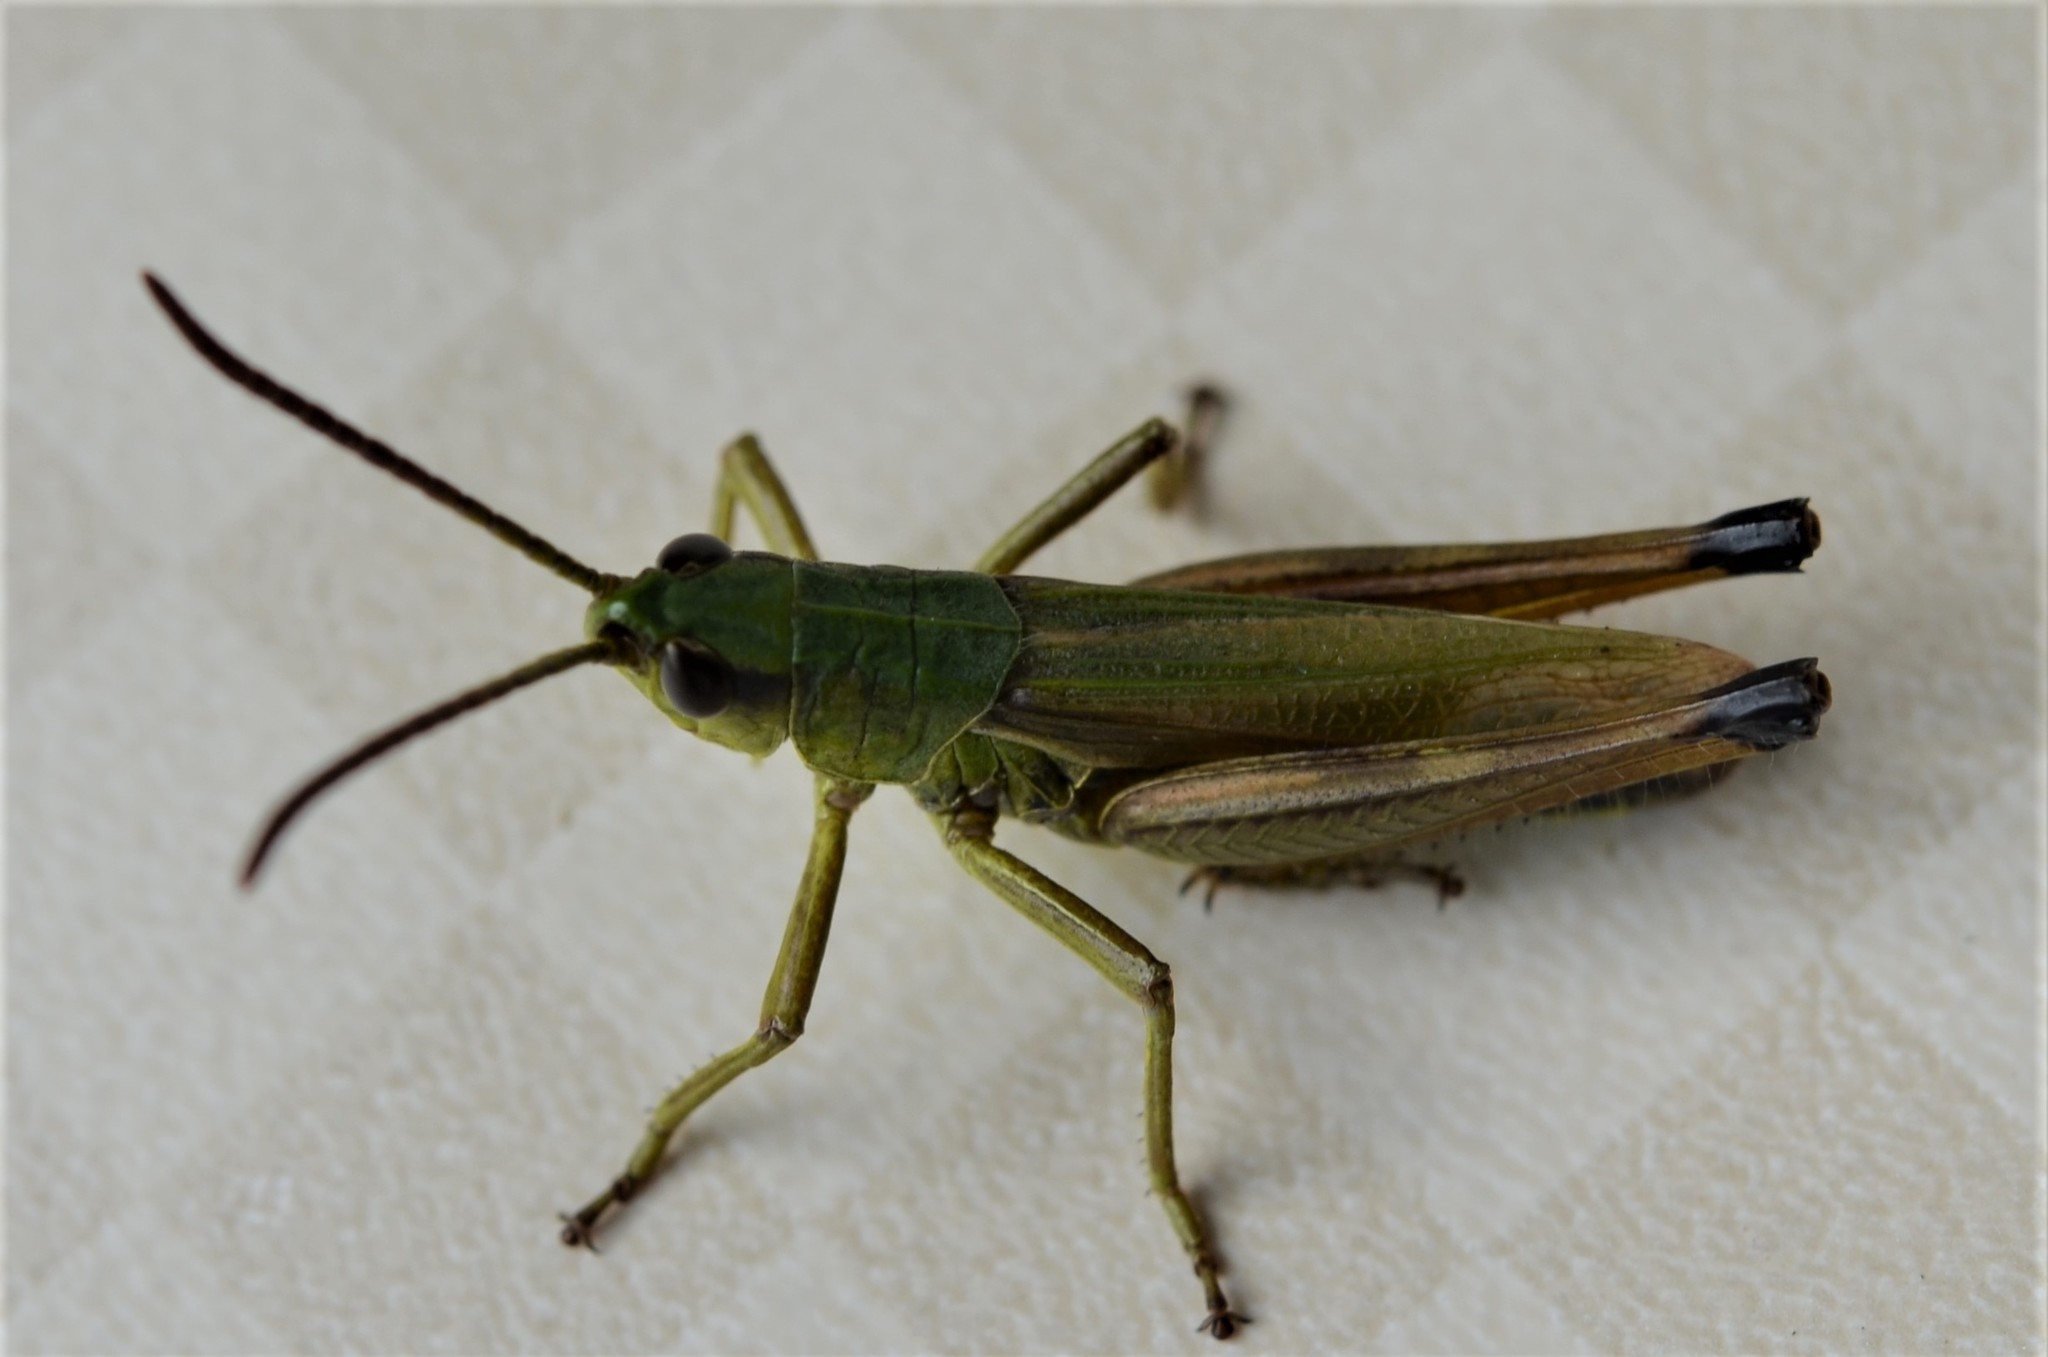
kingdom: Animalia
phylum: Arthropoda
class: Insecta
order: Orthoptera
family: Acrididae
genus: Pseudochorthippus
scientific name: Pseudochorthippus parallelus
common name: Meadow grasshopper
